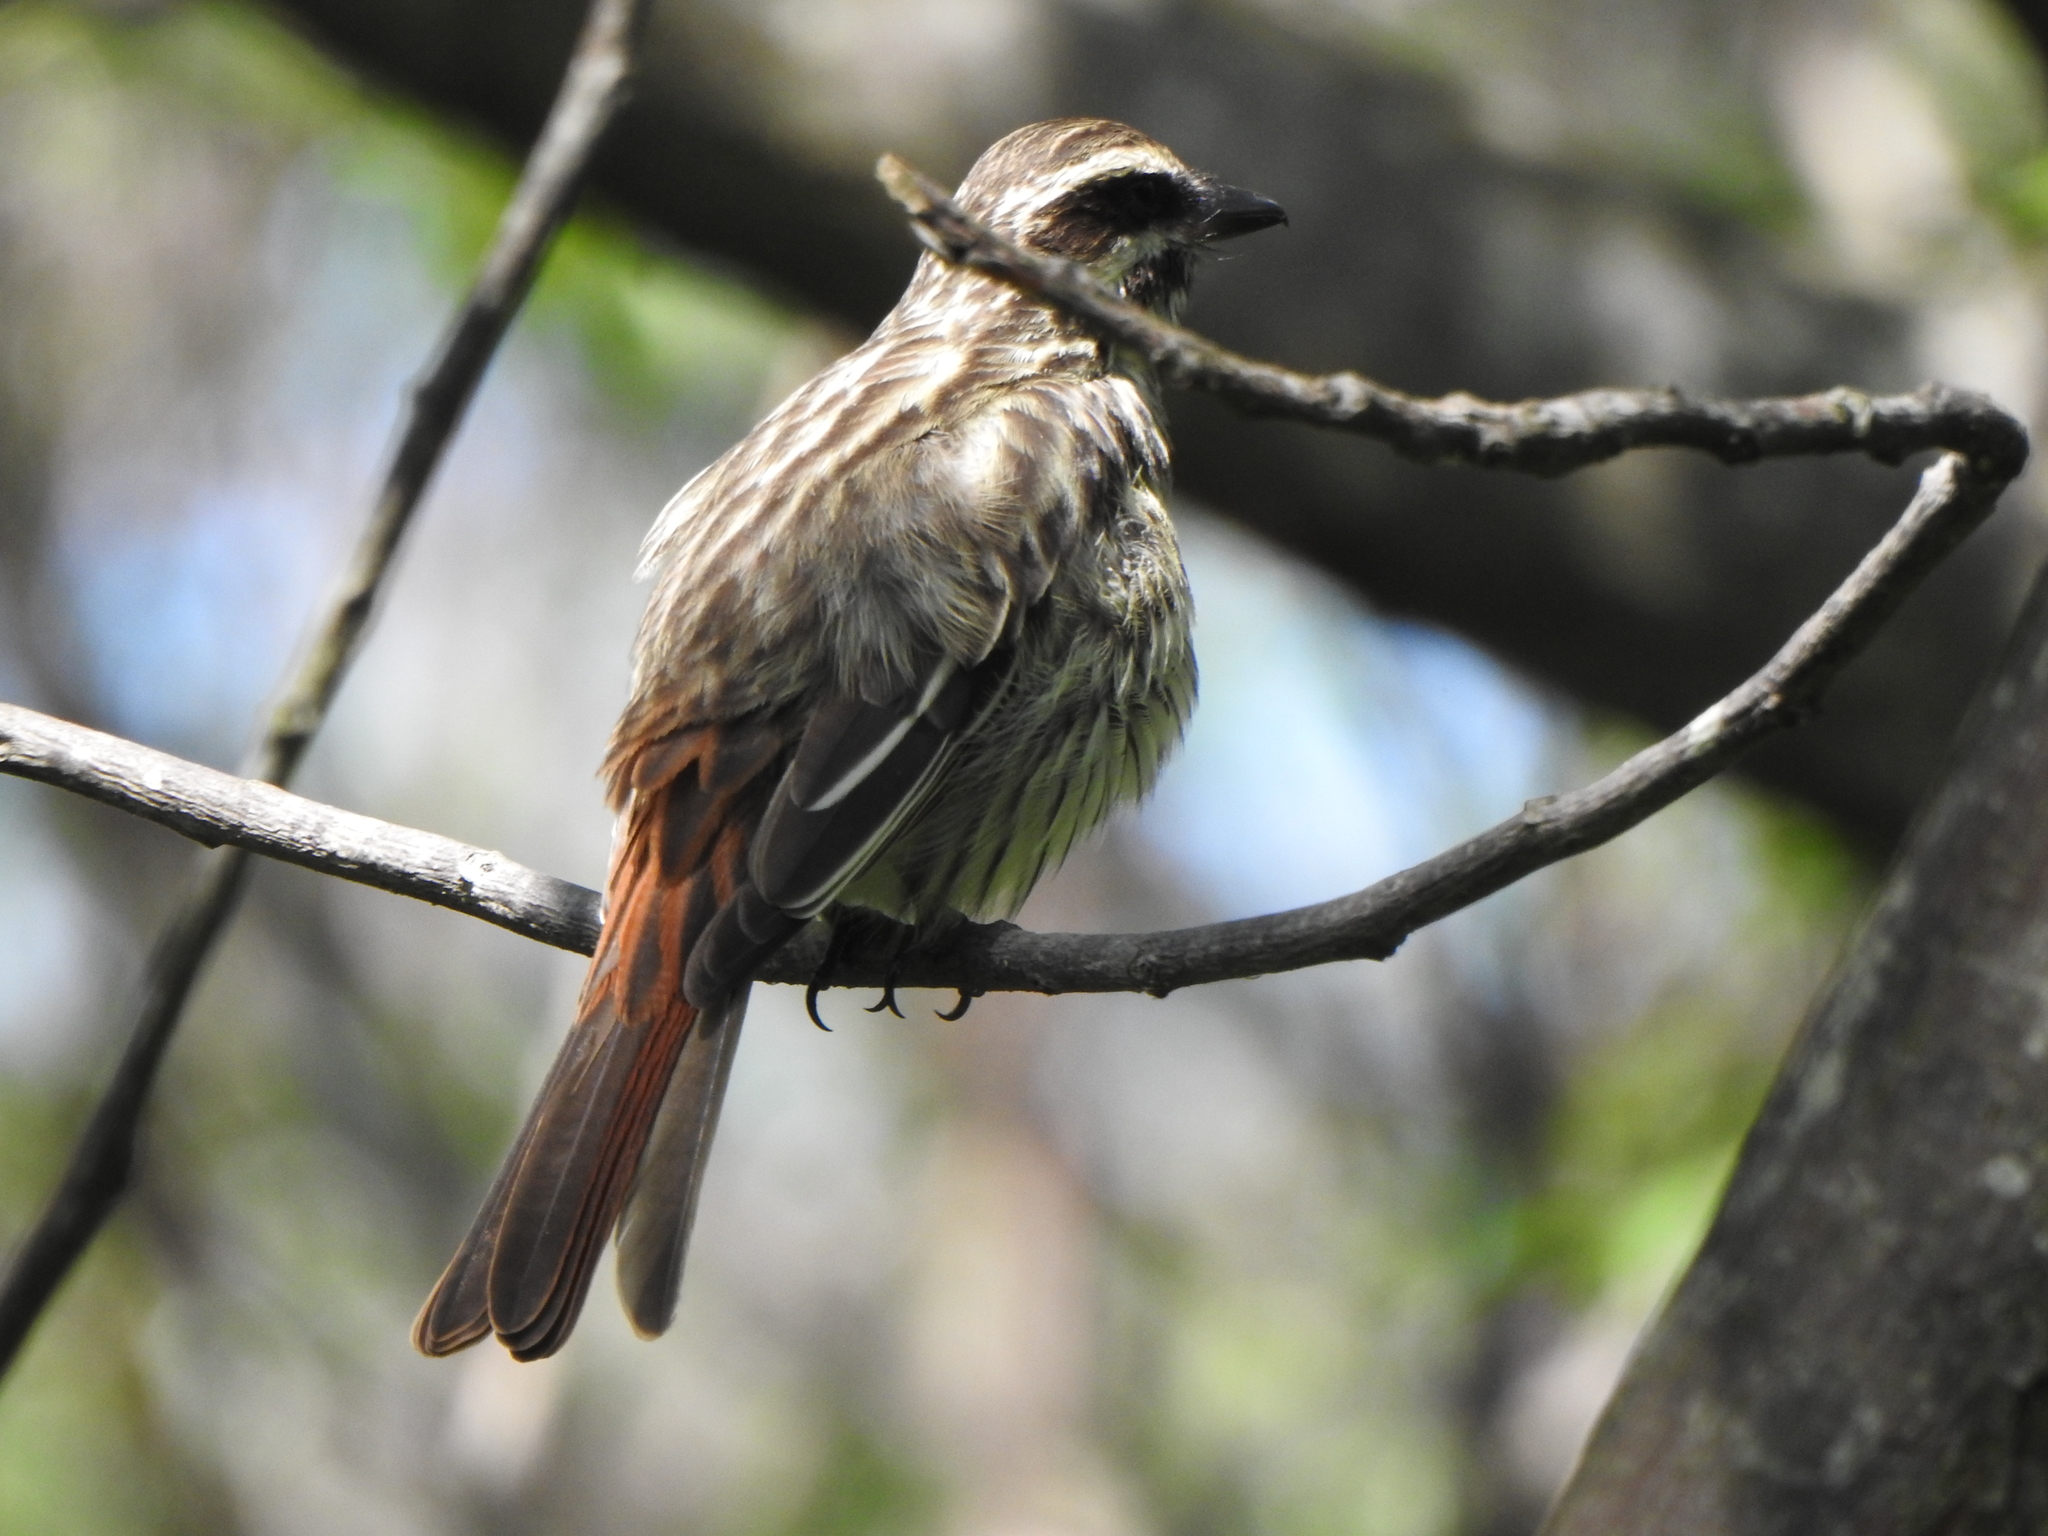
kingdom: Animalia
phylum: Chordata
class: Aves
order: Passeriformes
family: Tyrannidae
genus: Myiodynastes
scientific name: Myiodynastes maculatus
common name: Streaked flycatcher
